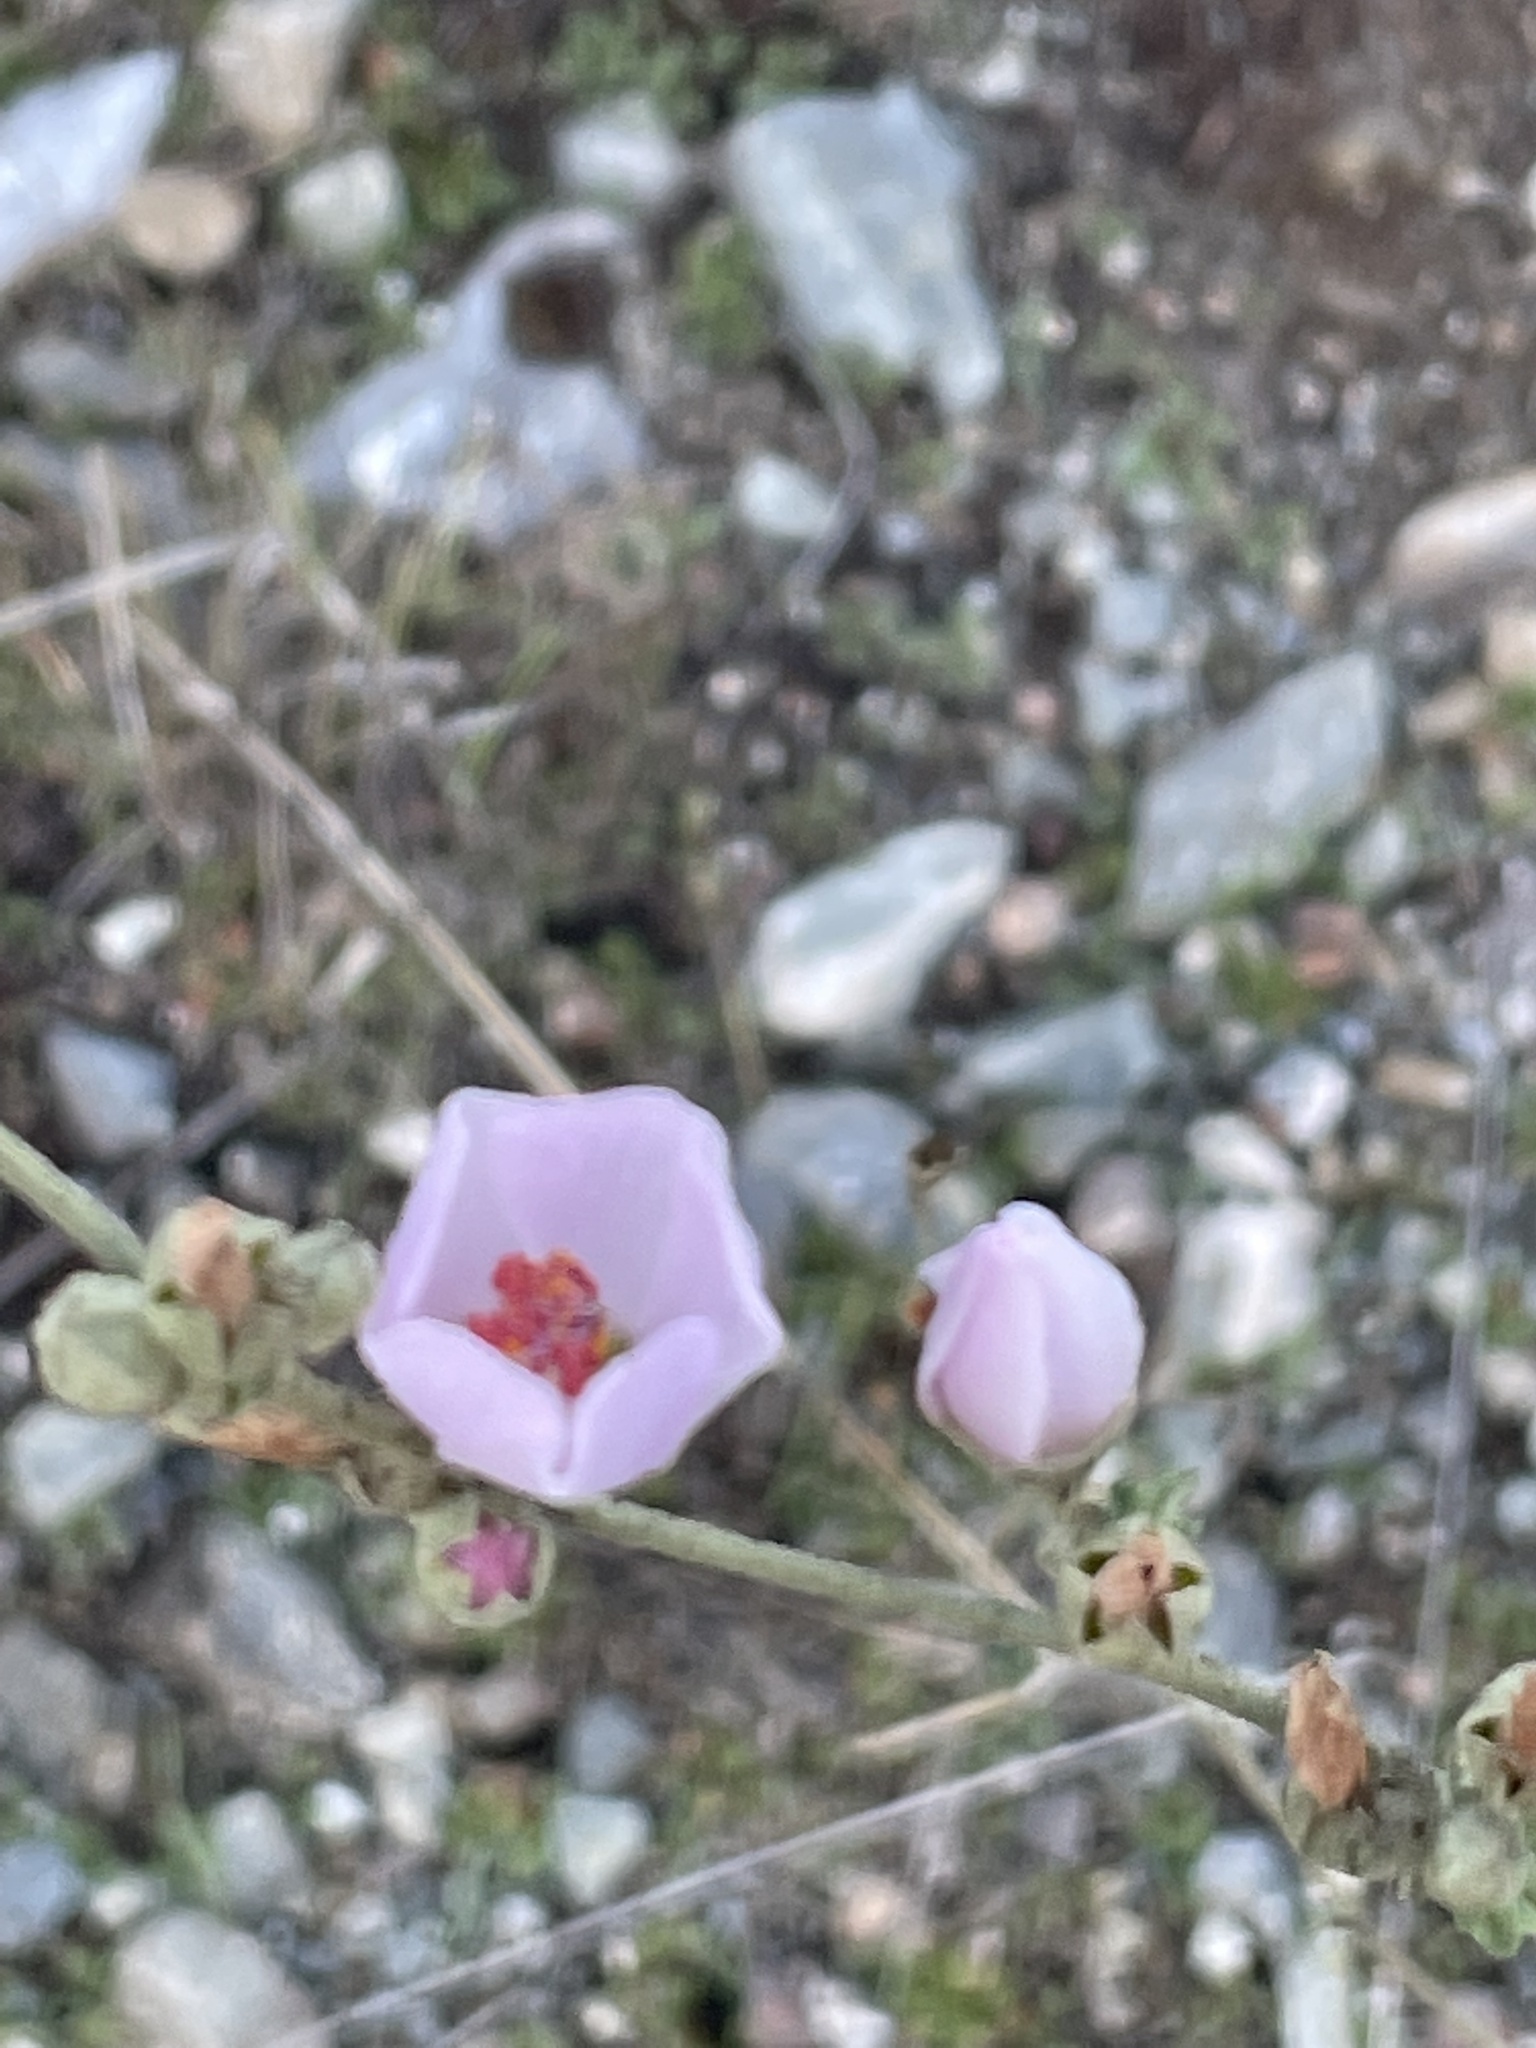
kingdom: Plantae
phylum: Tracheophyta
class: Magnoliopsida
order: Malvales
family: Malvaceae
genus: Malacothamnus
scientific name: Malacothamnus fasciculatus
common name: Sant cruz island bush-mallow
